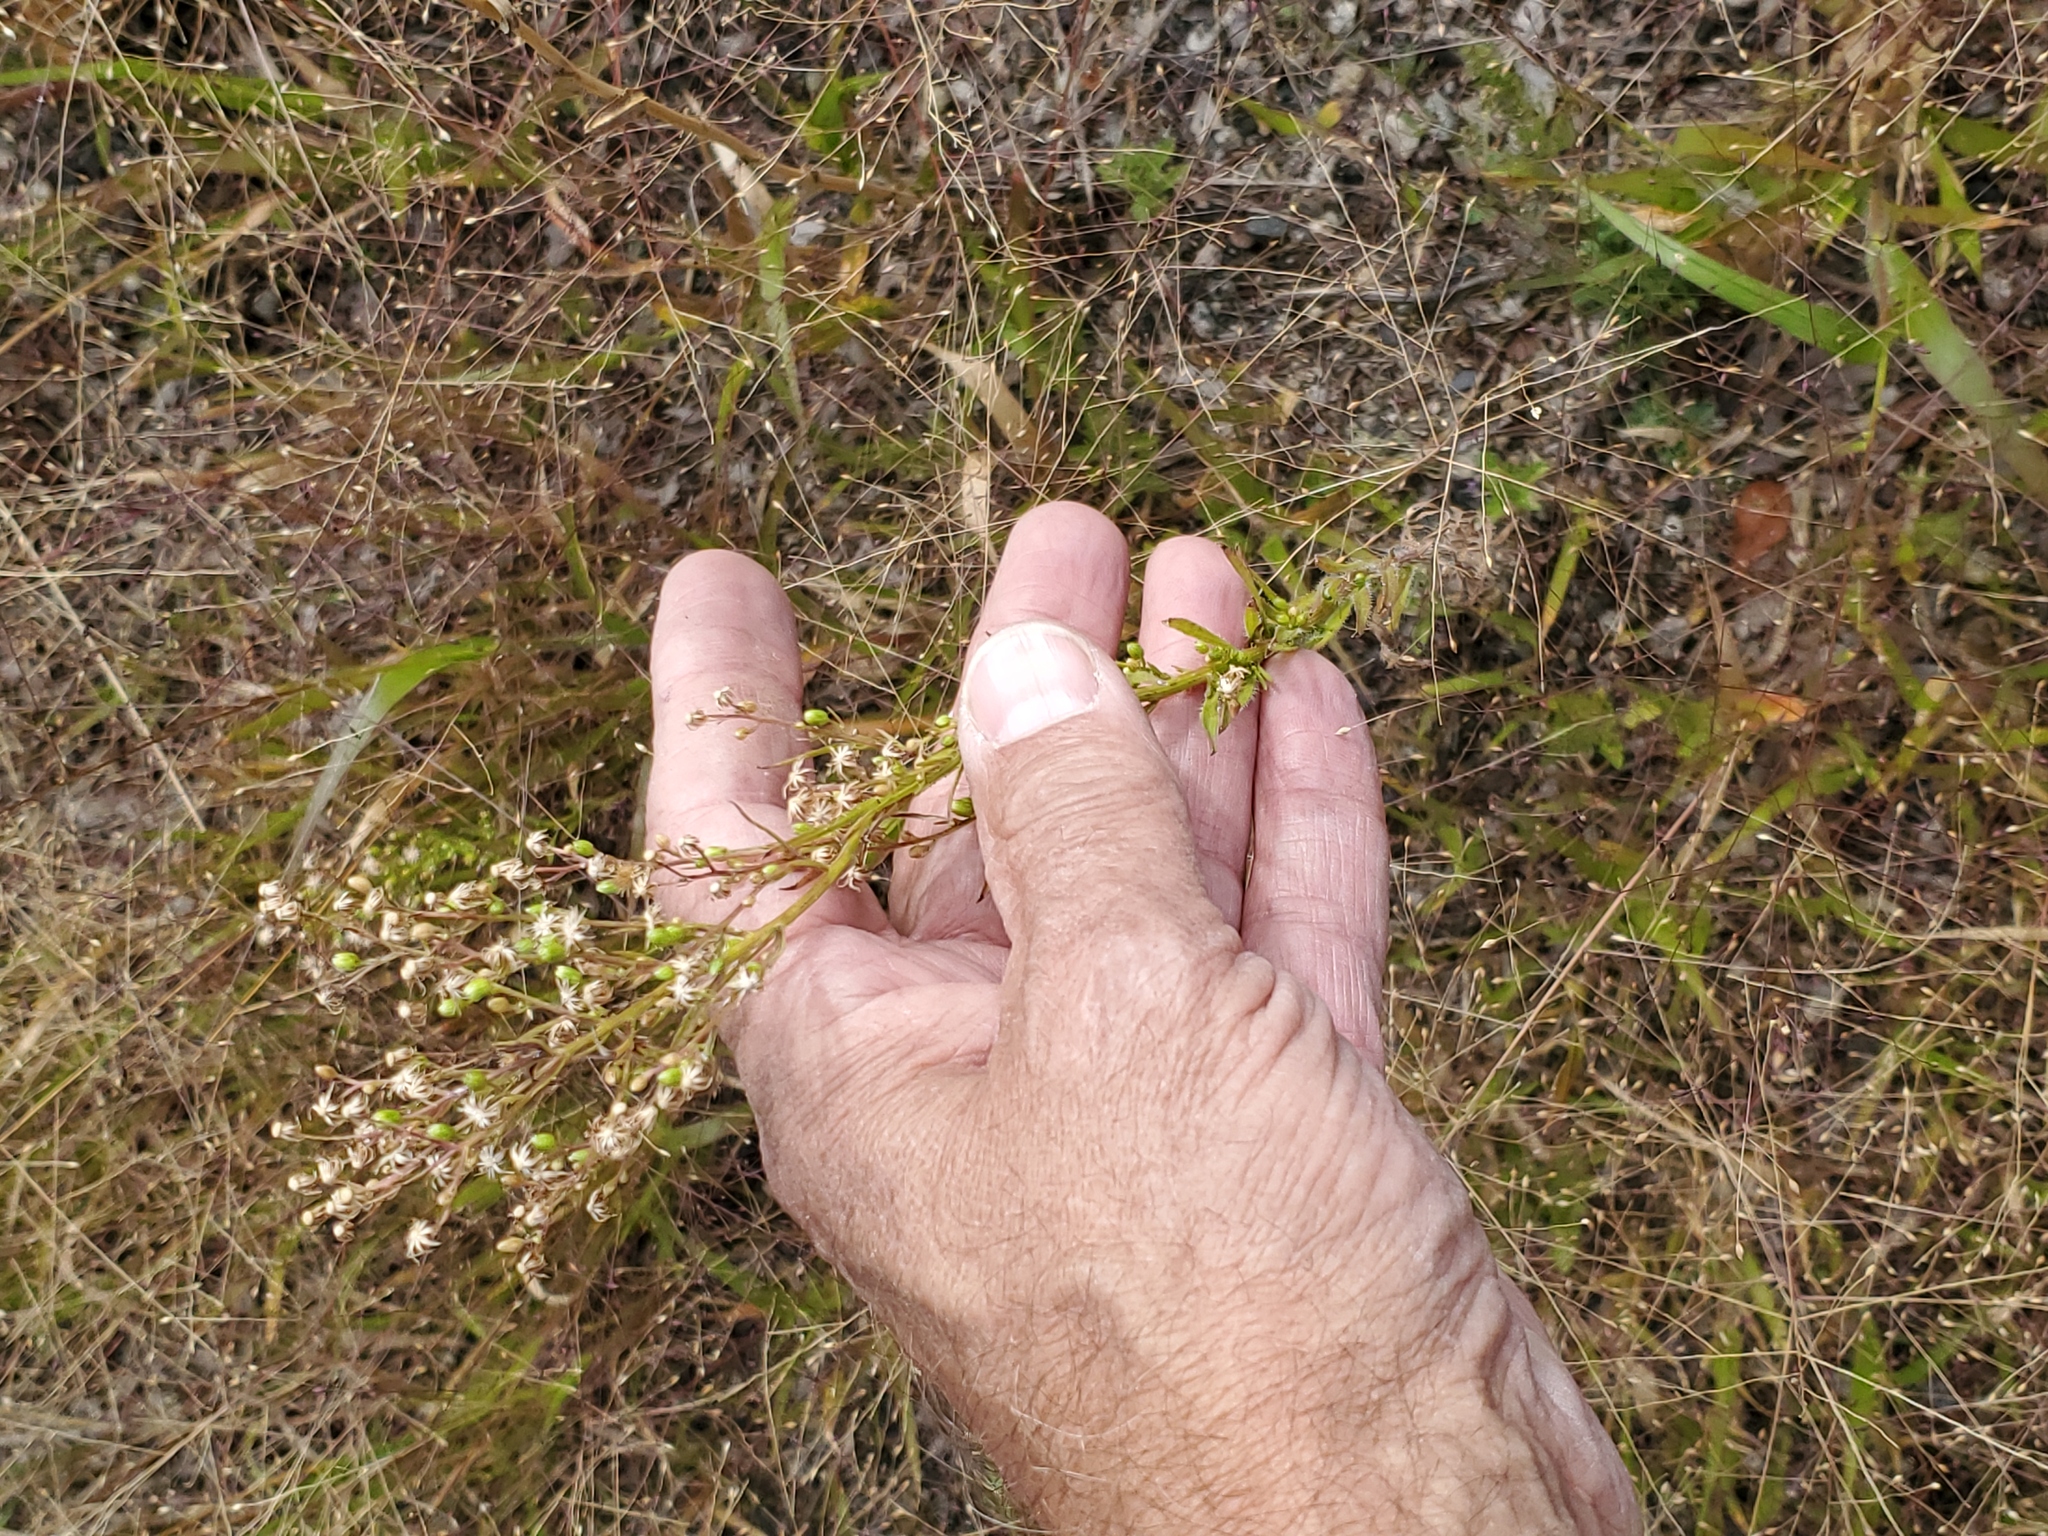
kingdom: Plantae
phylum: Tracheophyta
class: Magnoliopsida
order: Asterales
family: Asteraceae
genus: Erigeron
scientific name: Erigeron canadensis
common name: Canadian fleabane
